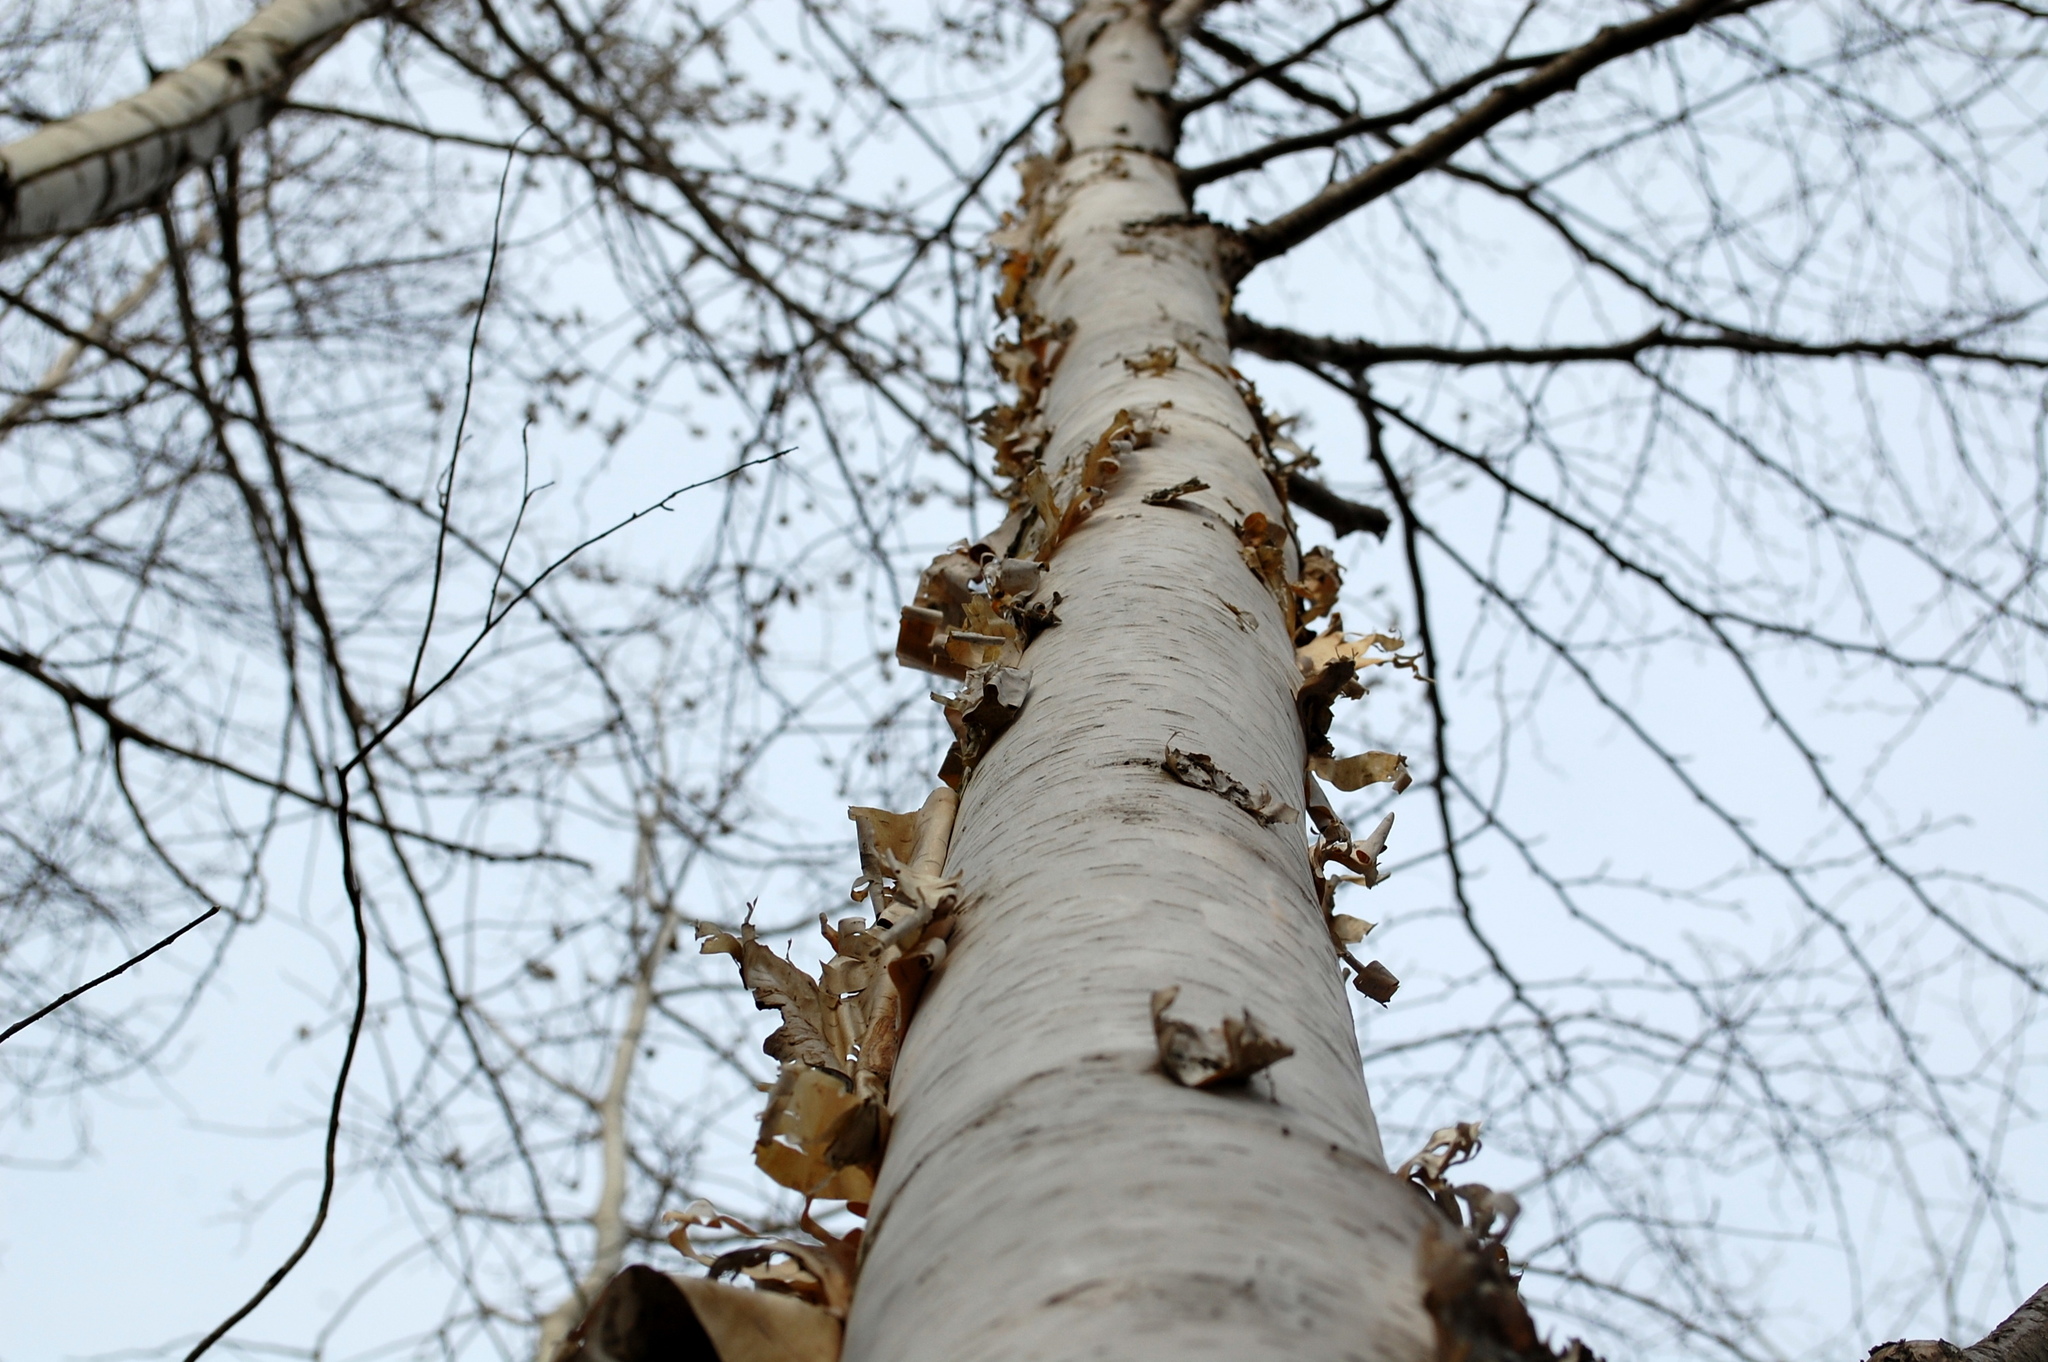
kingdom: Plantae
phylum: Tracheophyta
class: Magnoliopsida
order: Fagales
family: Betulaceae
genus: Betula
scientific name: Betula papyrifera
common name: Paper birch
